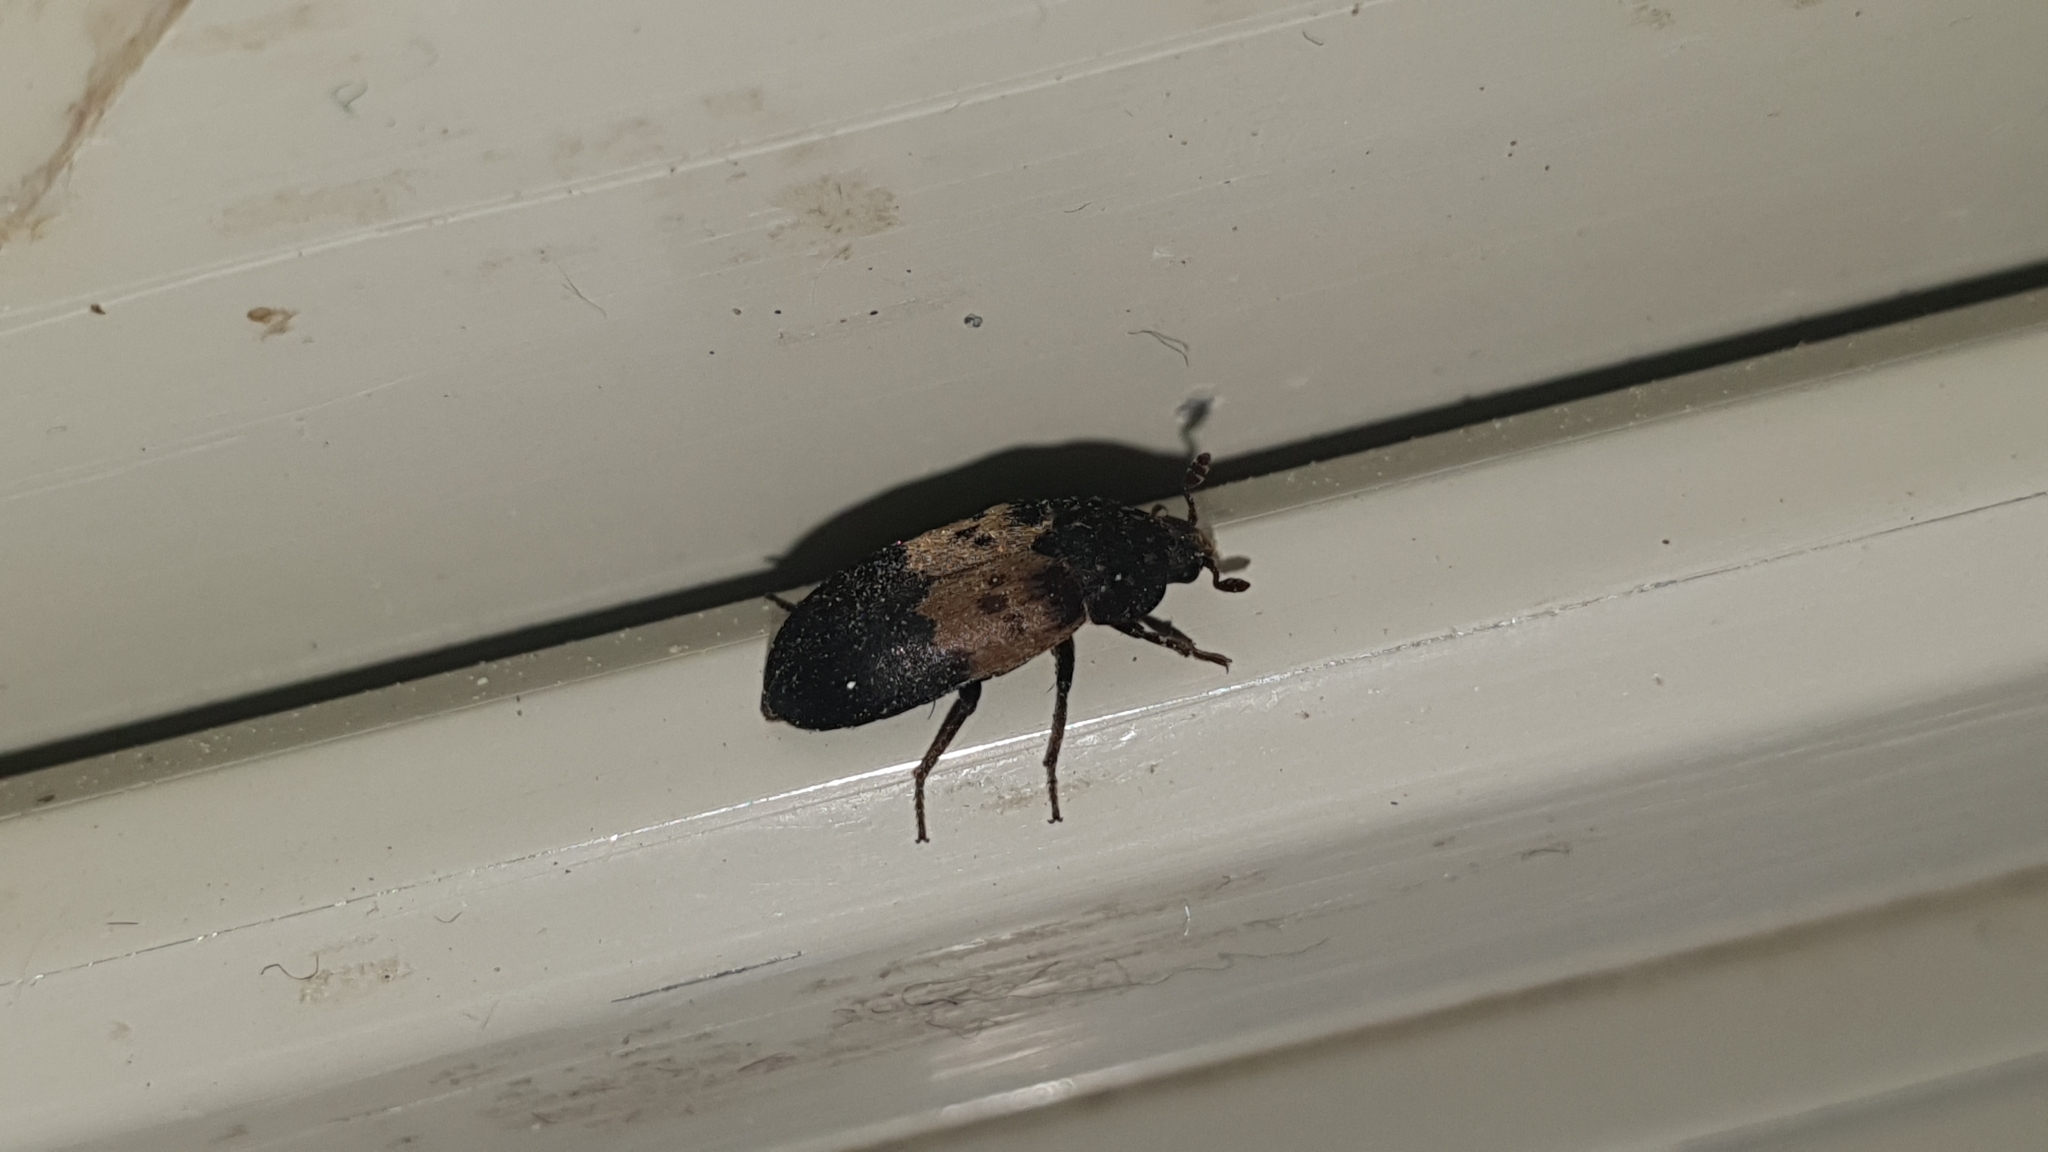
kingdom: Animalia
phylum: Arthropoda
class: Insecta
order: Coleoptera
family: Dermestidae
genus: Dermestes
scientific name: Dermestes lardarius
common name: Larder beetle
